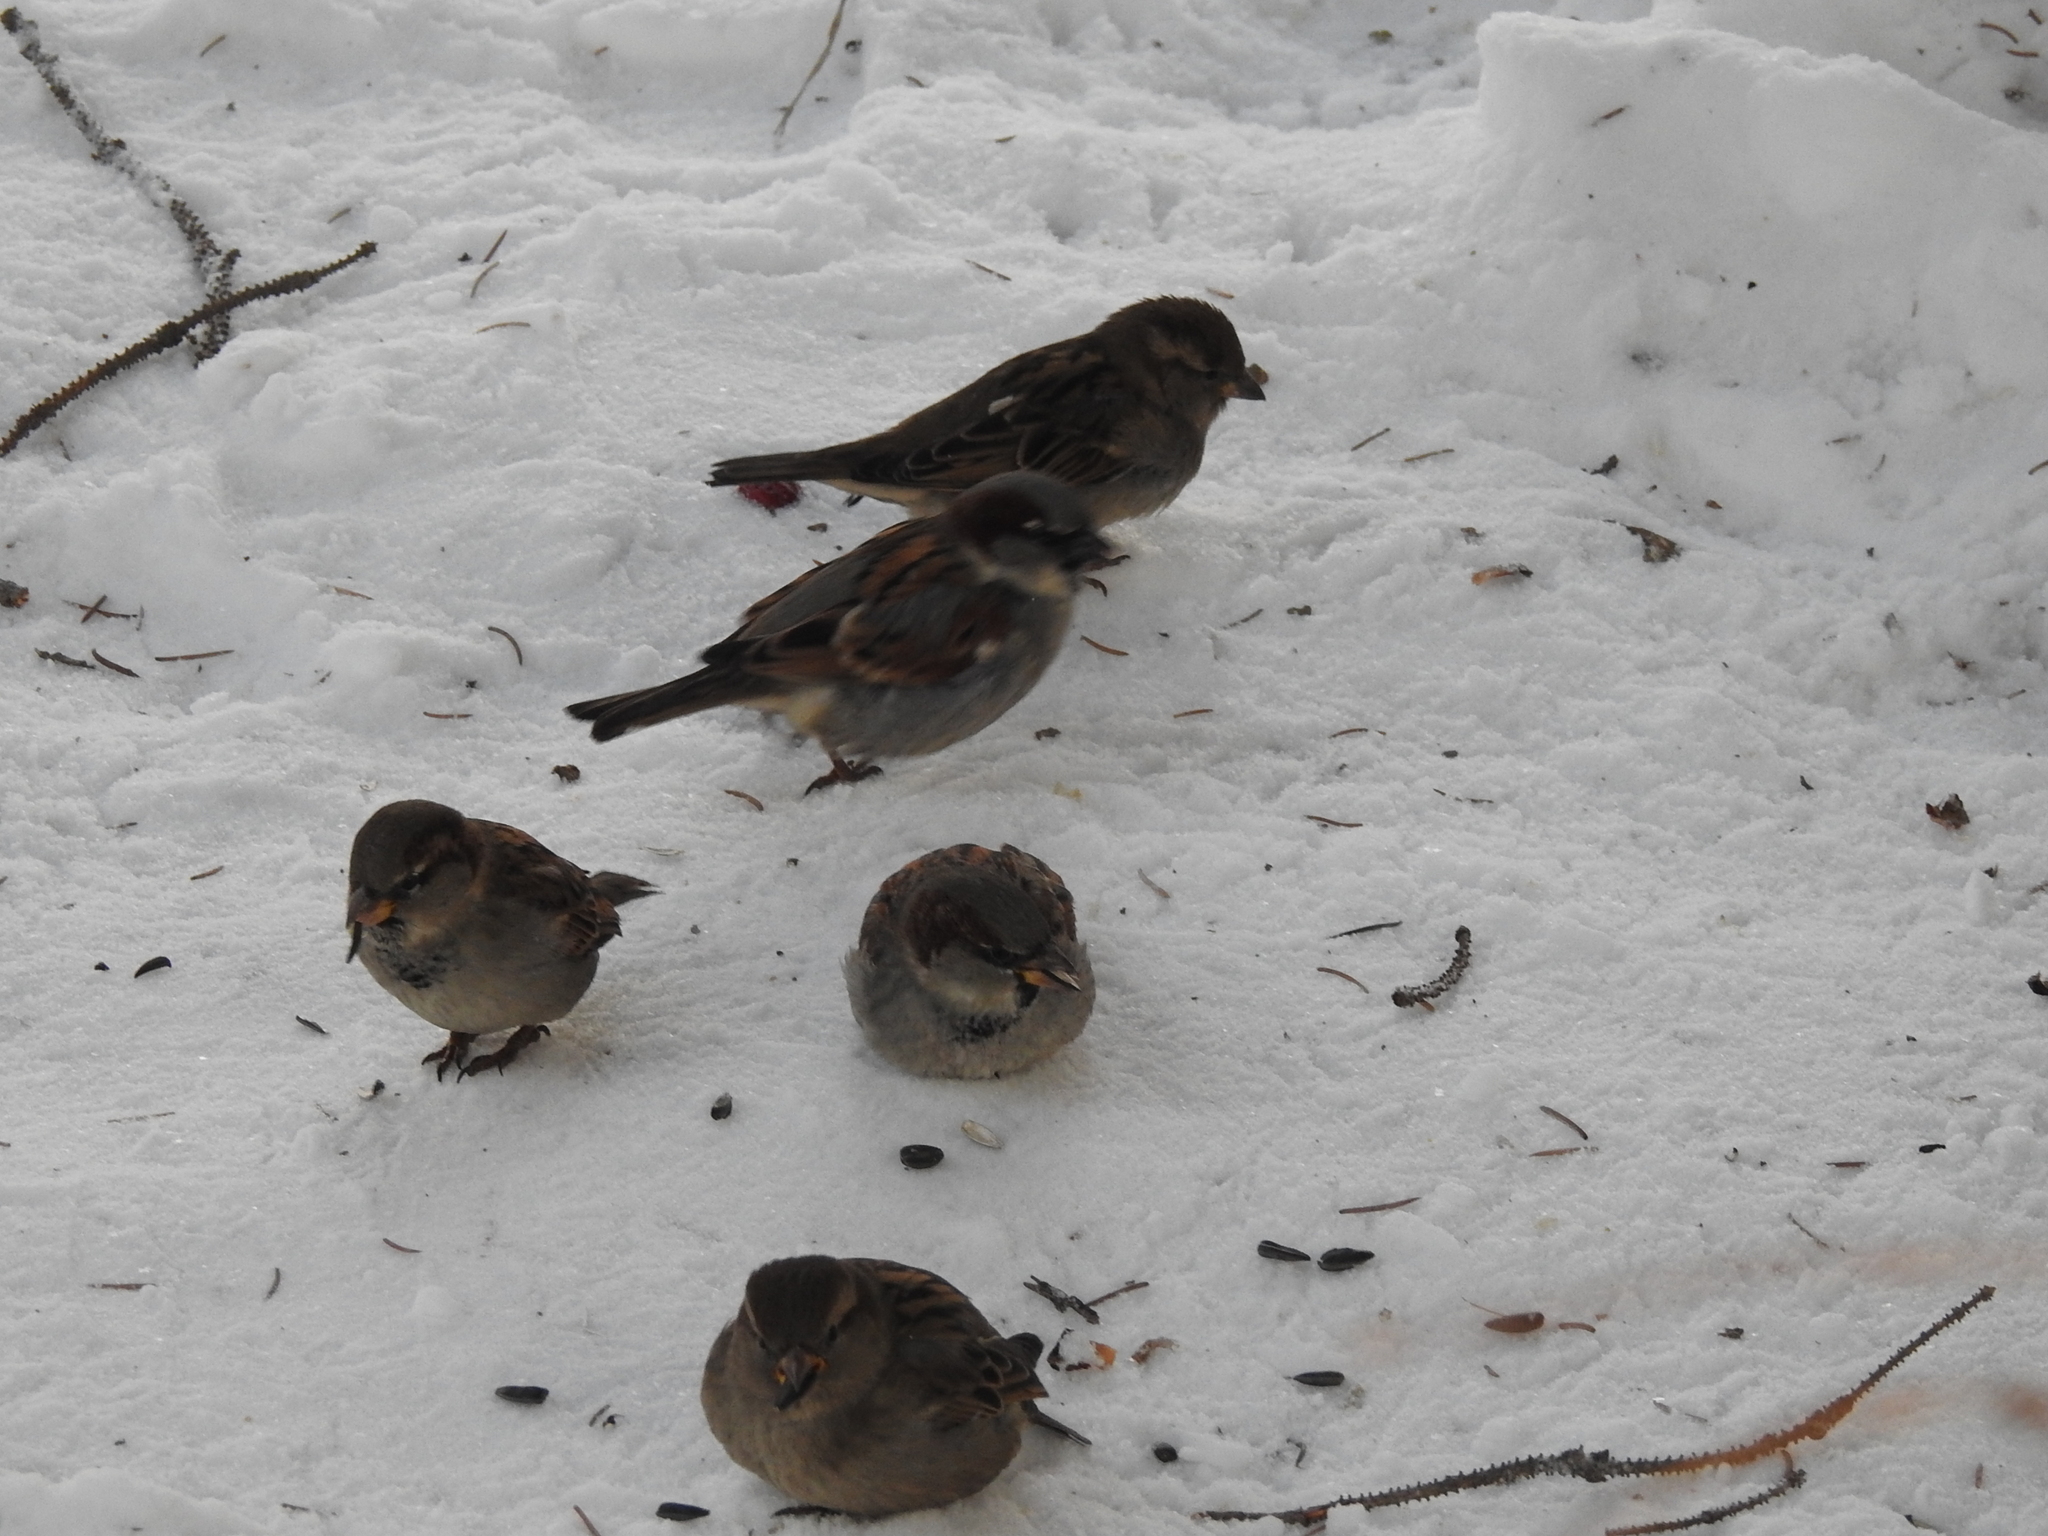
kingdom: Animalia
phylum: Chordata
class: Aves
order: Passeriformes
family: Passeridae
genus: Passer
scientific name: Passer domesticus
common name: House sparrow
